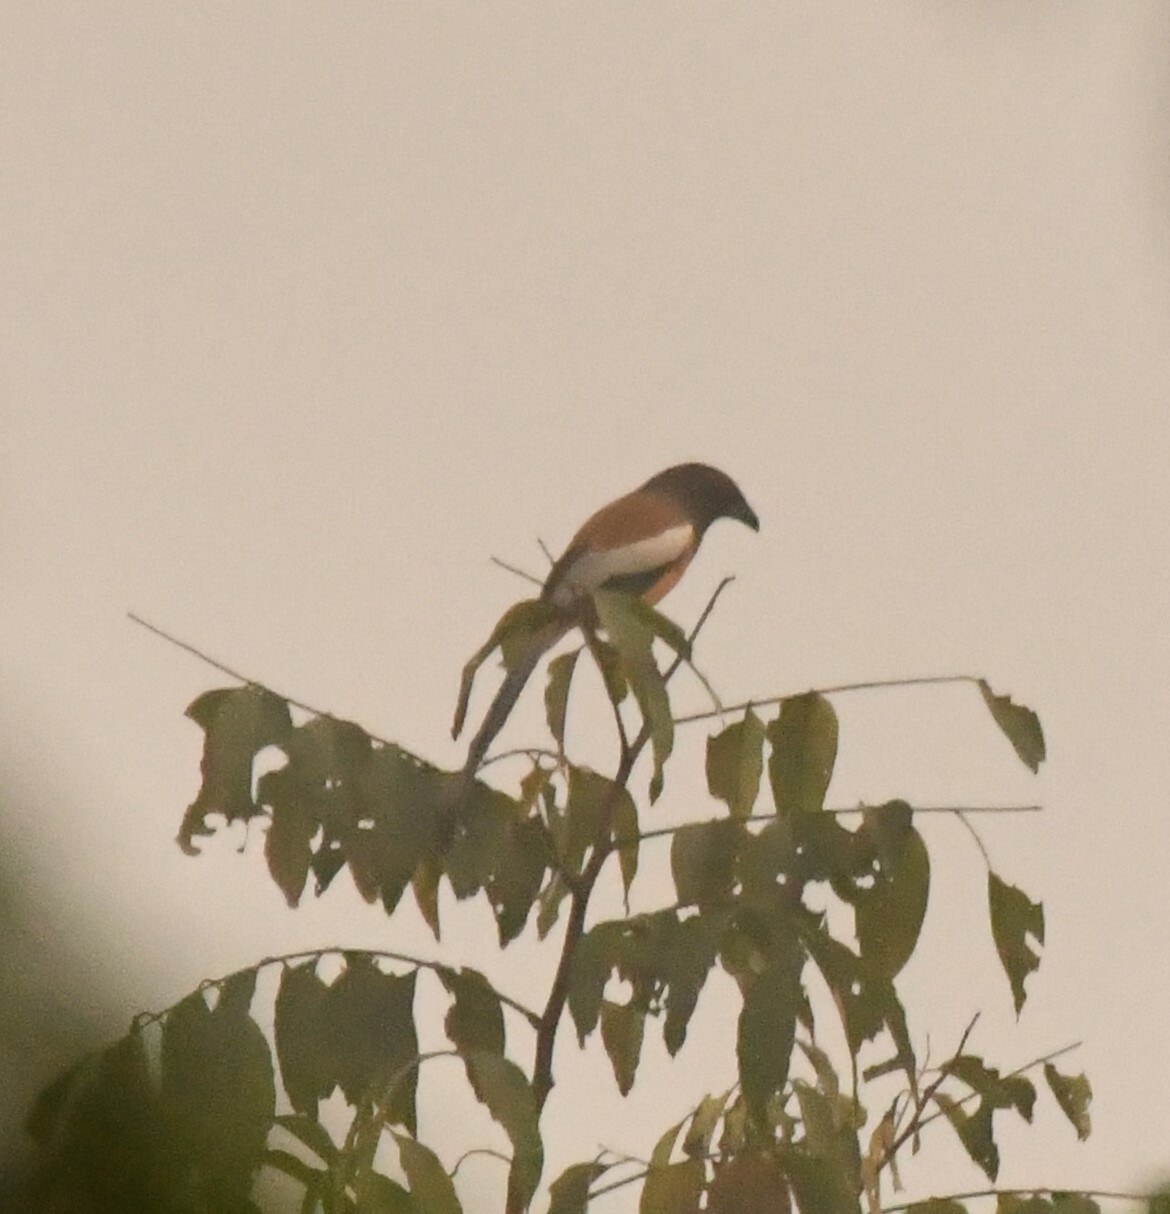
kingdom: Animalia
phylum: Chordata
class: Aves
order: Passeriformes
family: Corvidae
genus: Dendrocitta
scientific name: Dendrocitta vagabunda
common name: Rufous treepie
